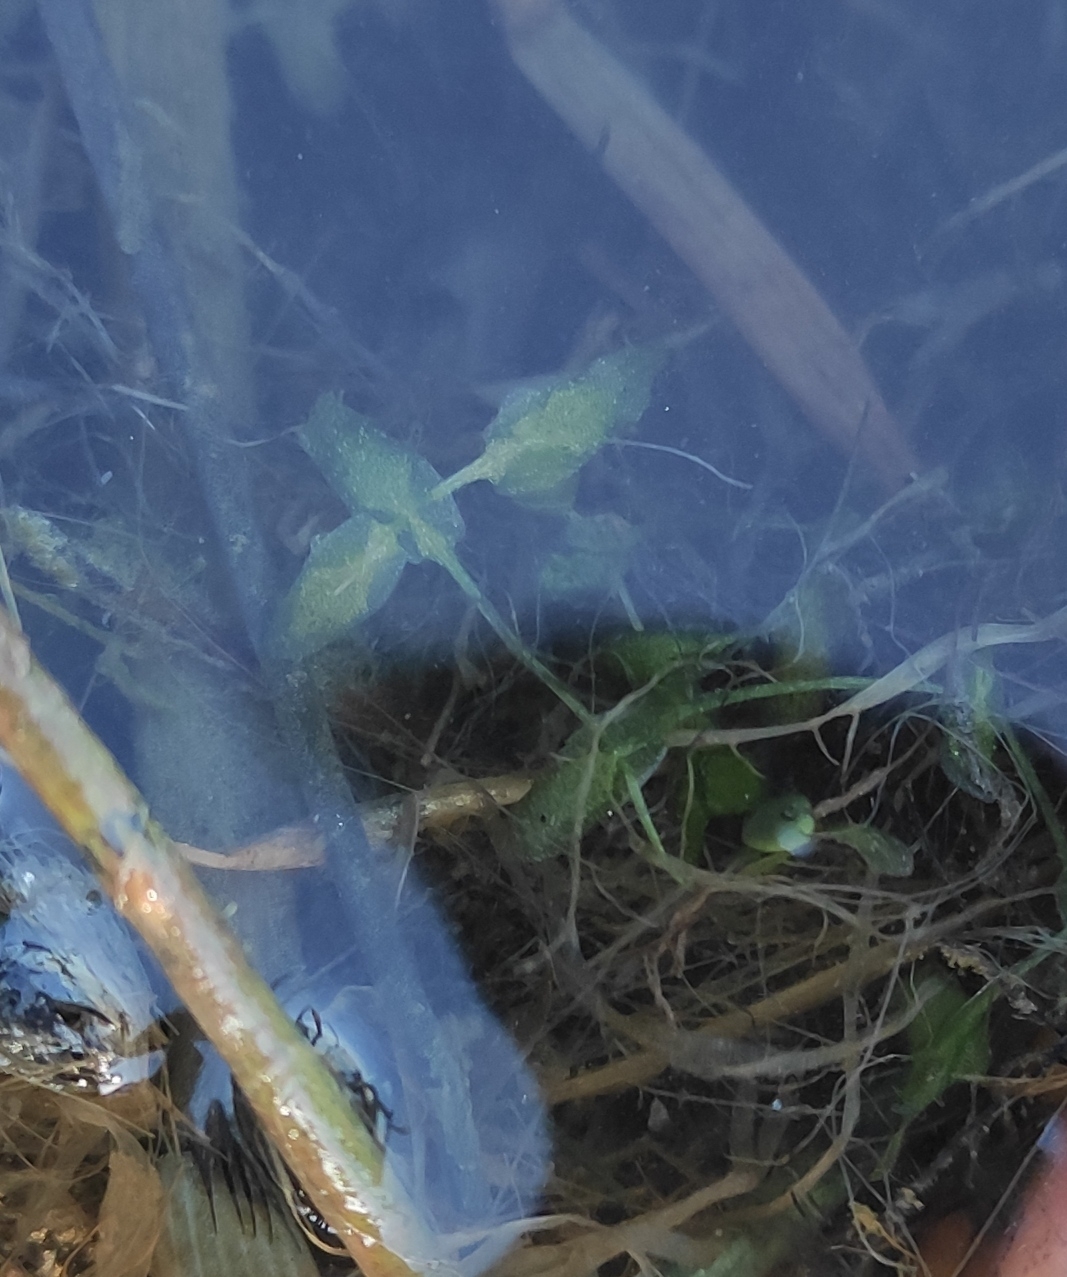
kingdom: Plantae
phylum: Tracheophyta
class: Liliopsida
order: Alismatales
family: Araceae
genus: Lemna
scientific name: Lemna trisulca
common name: Ivy-leaved duckweed
